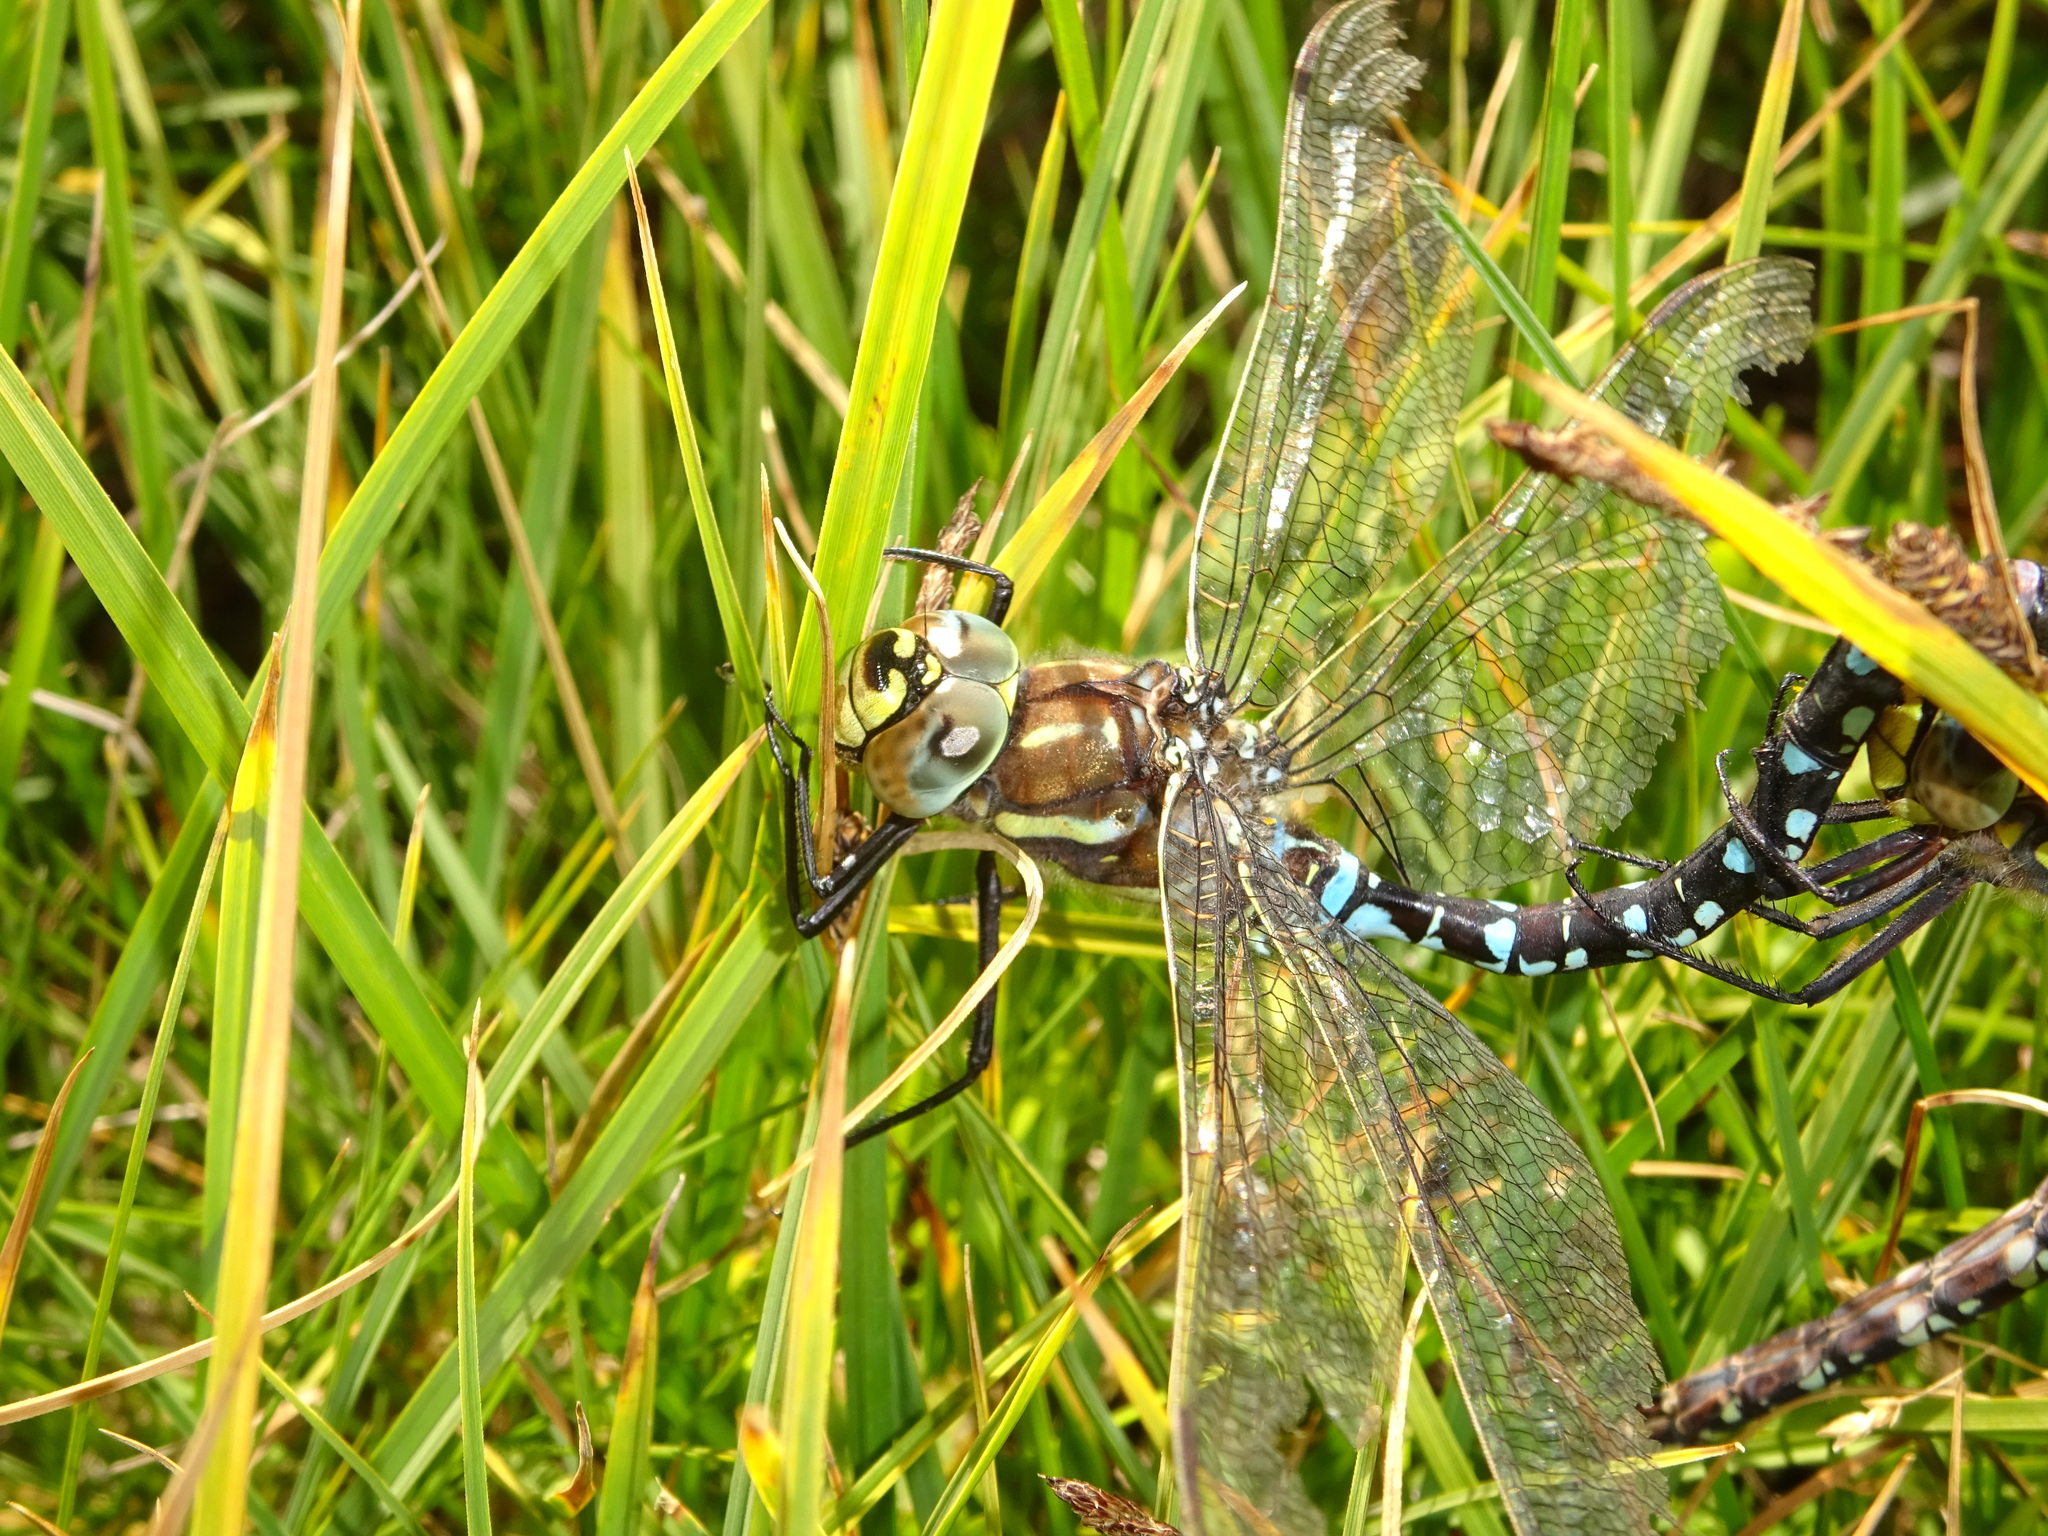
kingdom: Animalia
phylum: Arthropoda
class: Insecta
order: Odonata
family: Aeshnidae
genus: Aeshna
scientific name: Aeshna juncea
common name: Moorland hawker
